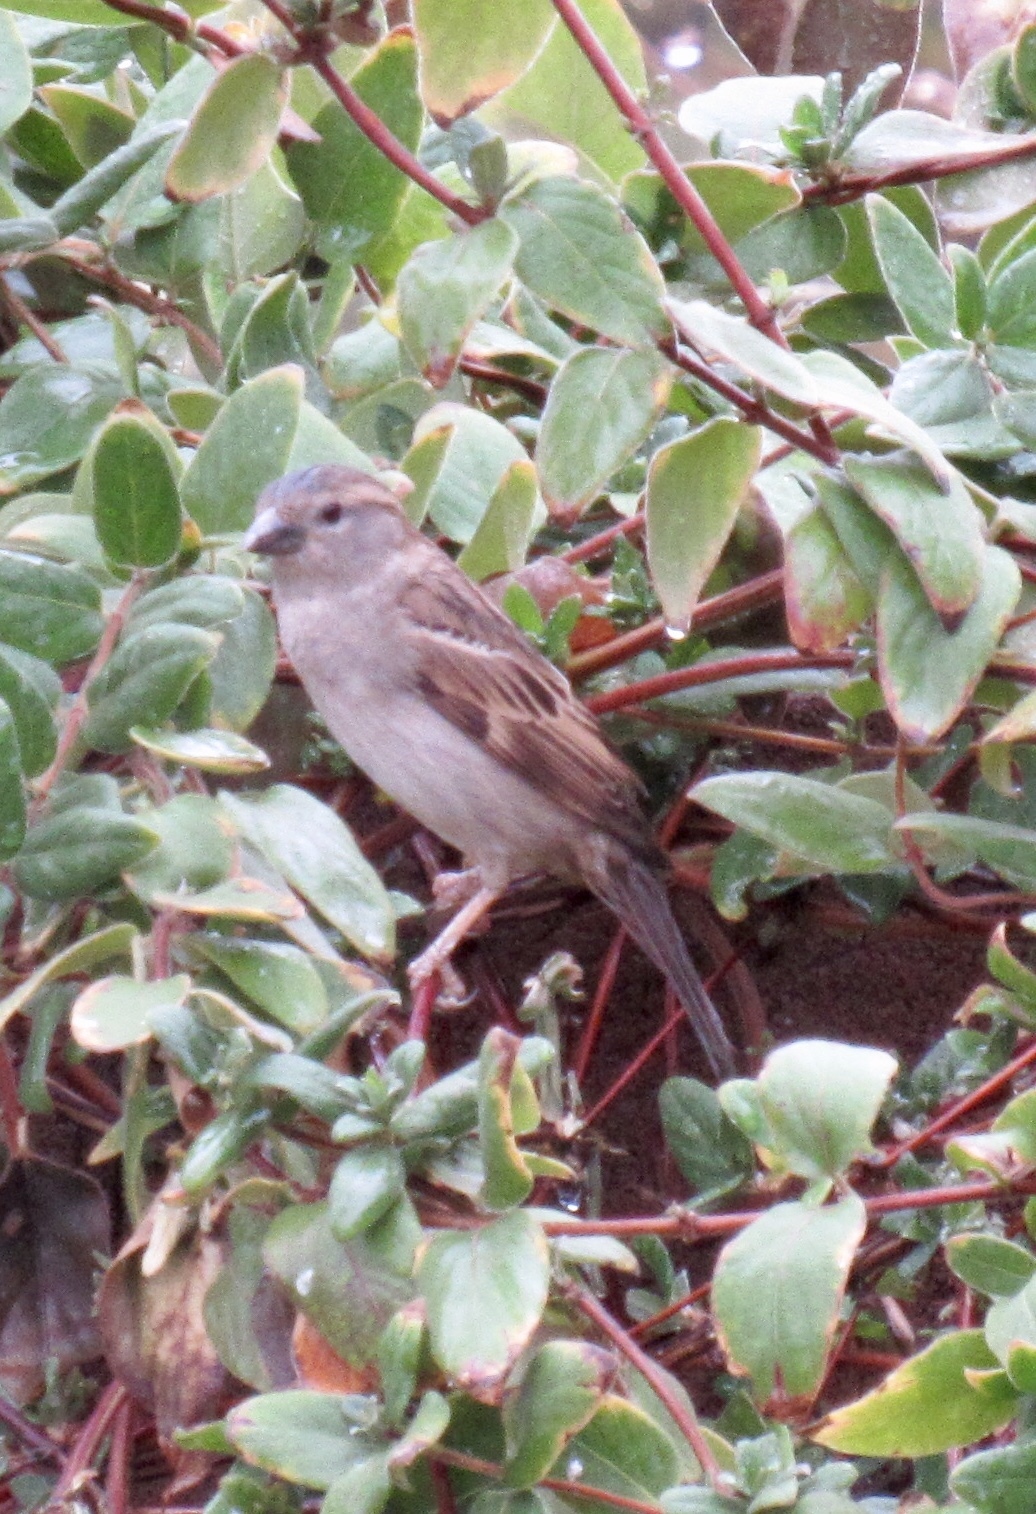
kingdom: Animalia
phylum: Chordata
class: Aves
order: Passeriformes
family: Passeridae
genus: Passer
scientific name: Passer domesticus
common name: House sparrow
